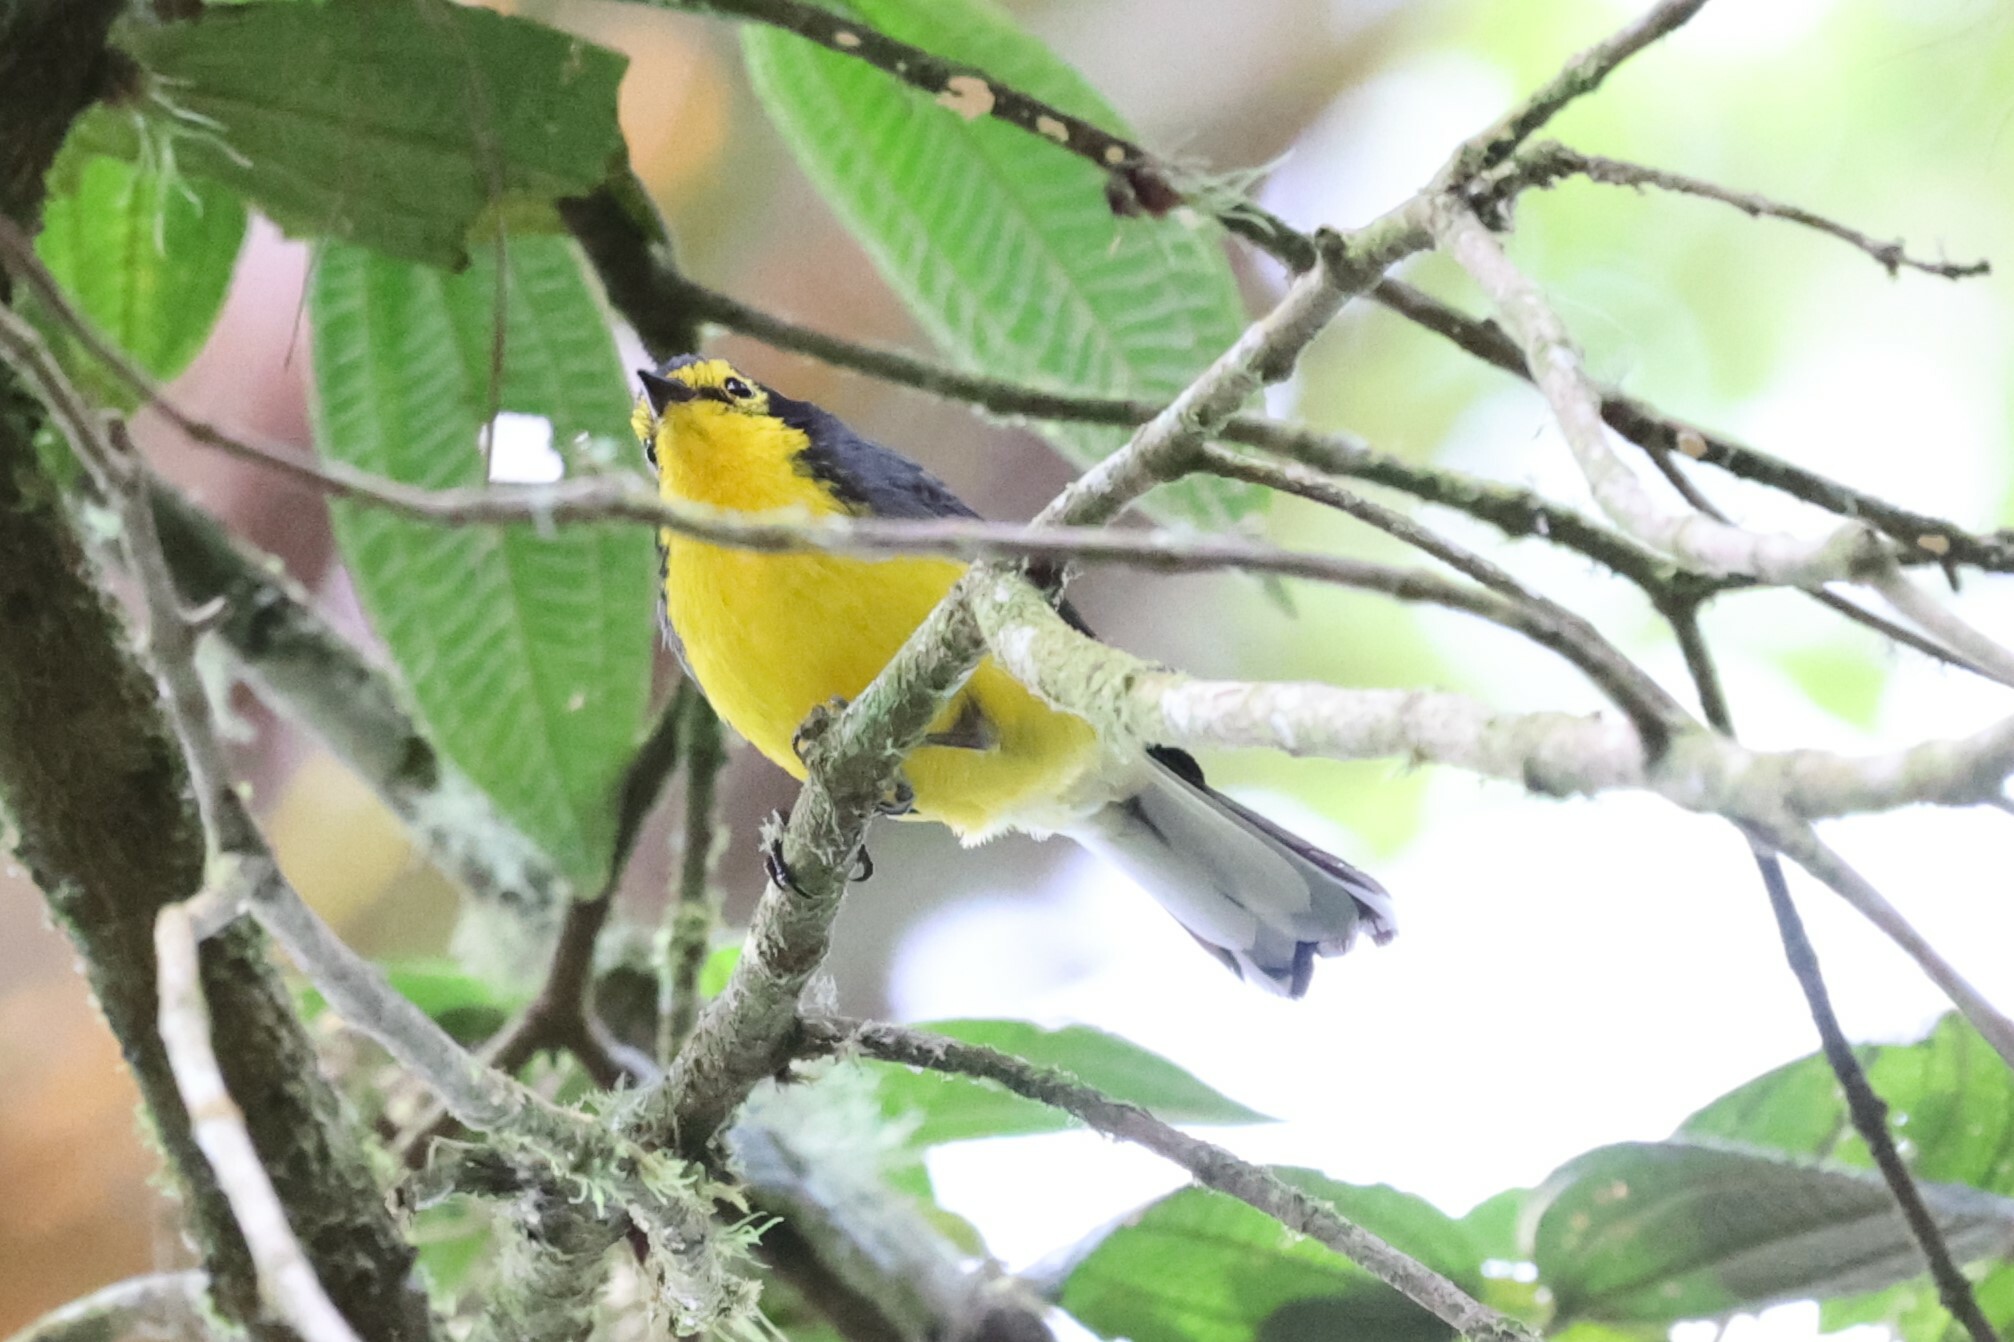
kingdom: Animalia
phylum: Chordata
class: Aves
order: Passeriformes
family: Parulidae
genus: Myioborus
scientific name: Myioborus melanocephalus
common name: Spectacled whitestart
